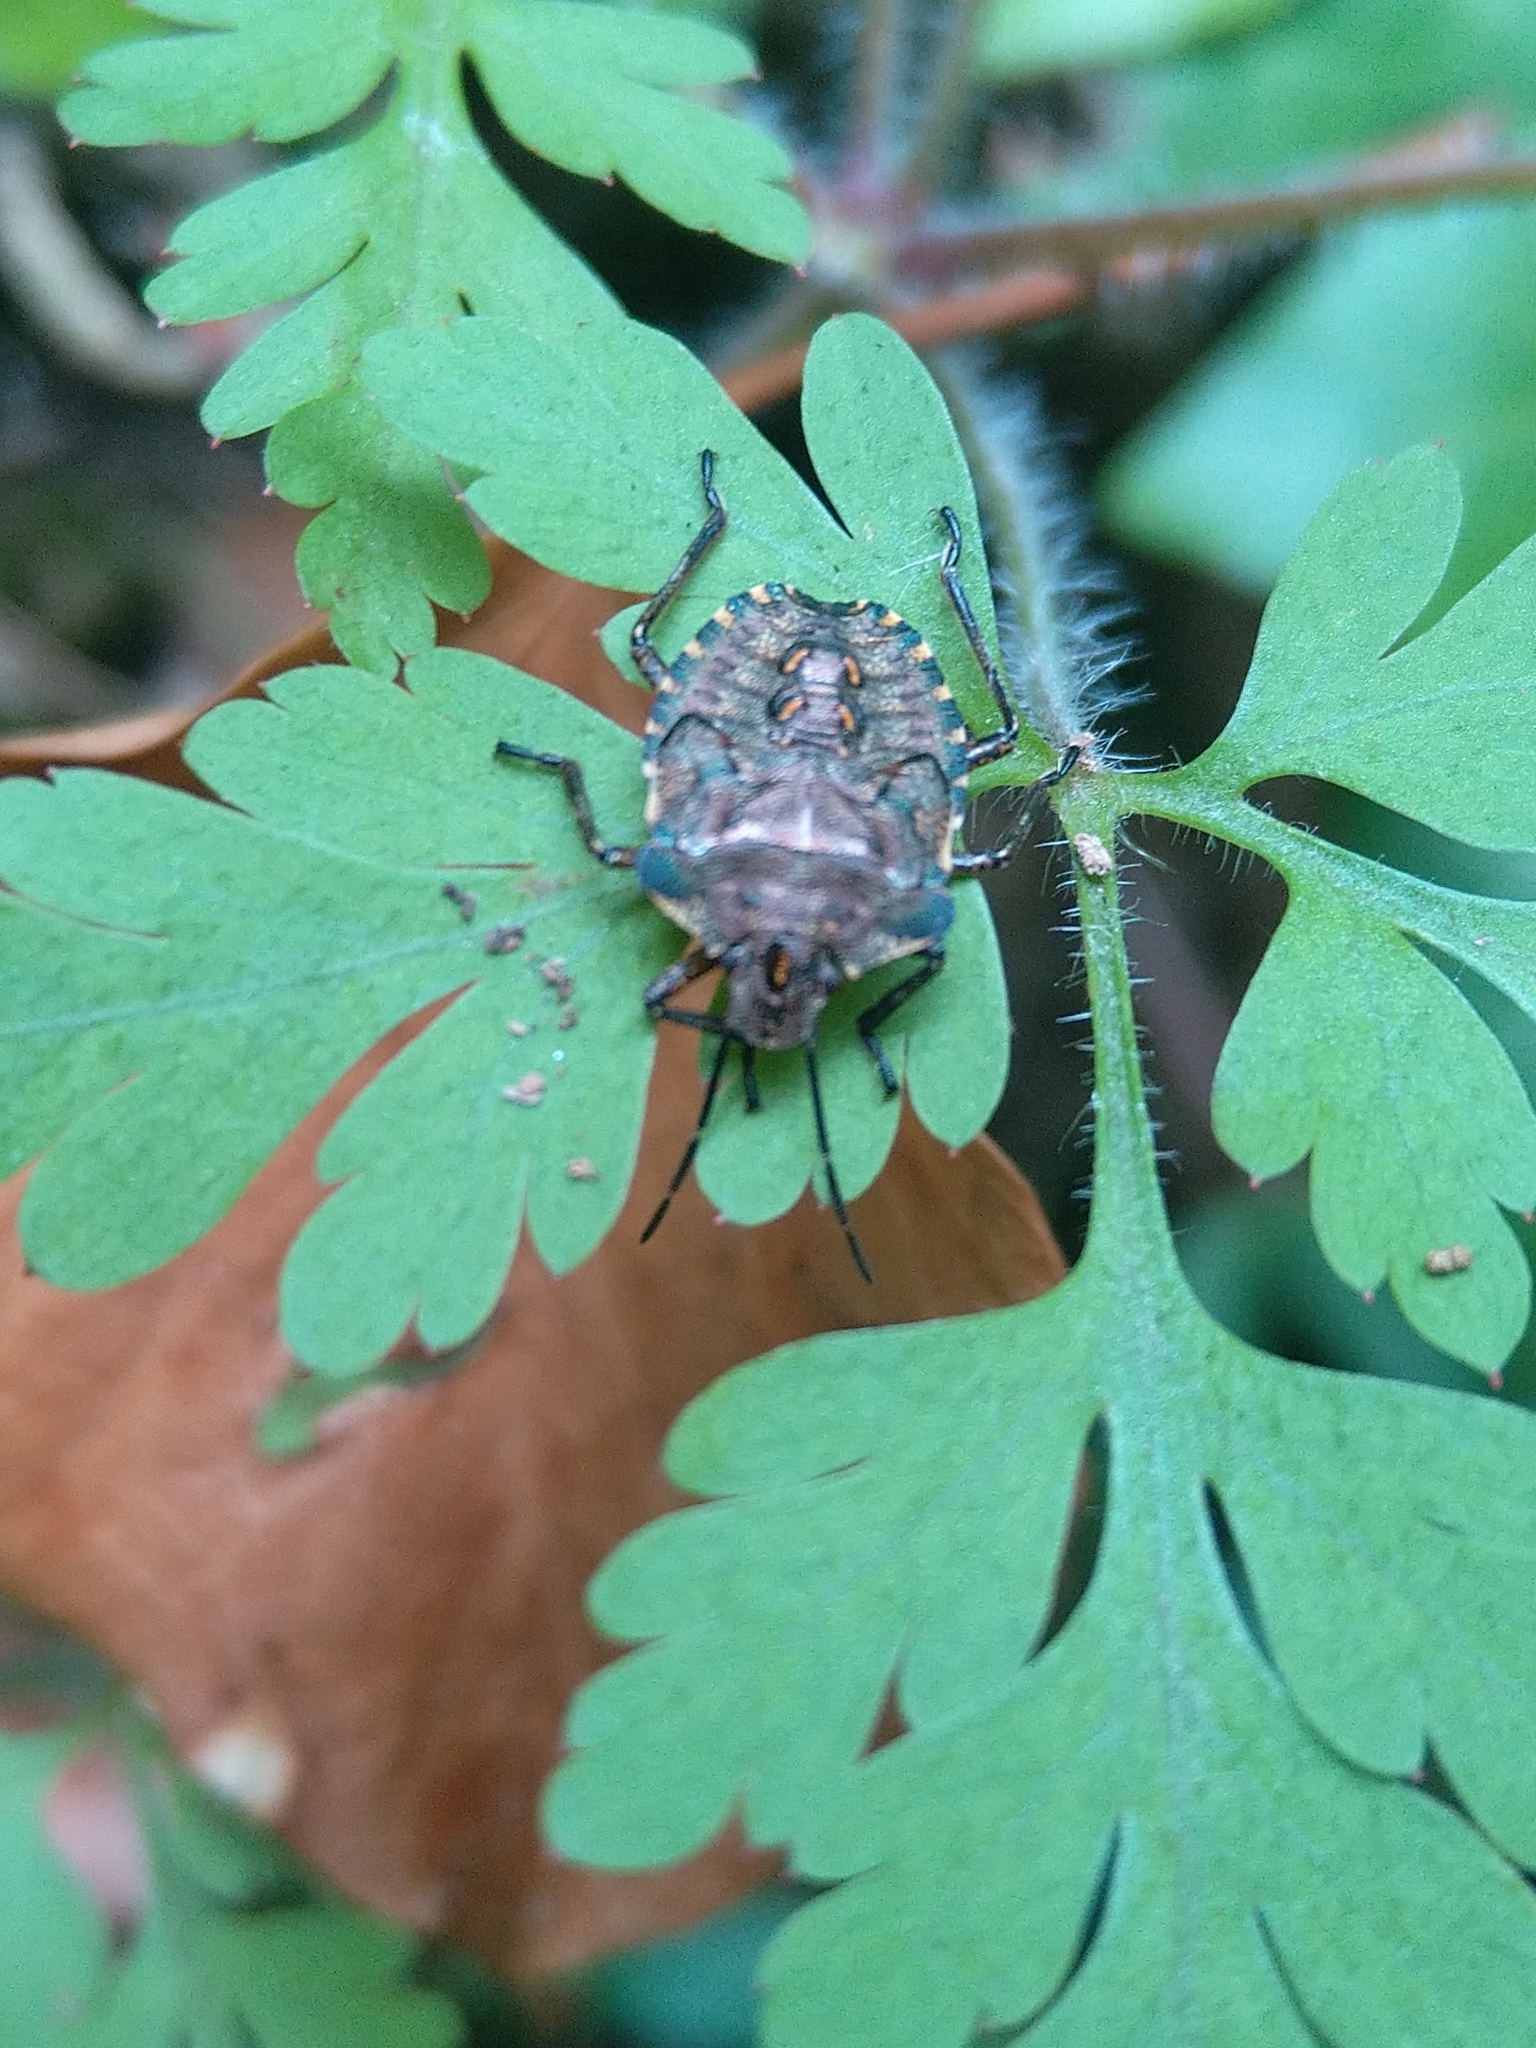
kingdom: Animalia
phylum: Arthropoda
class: Insecta
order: Hemiptera
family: Pentatomidae
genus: Pentatoma
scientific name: Pentatoma rufipes
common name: Forest bug
